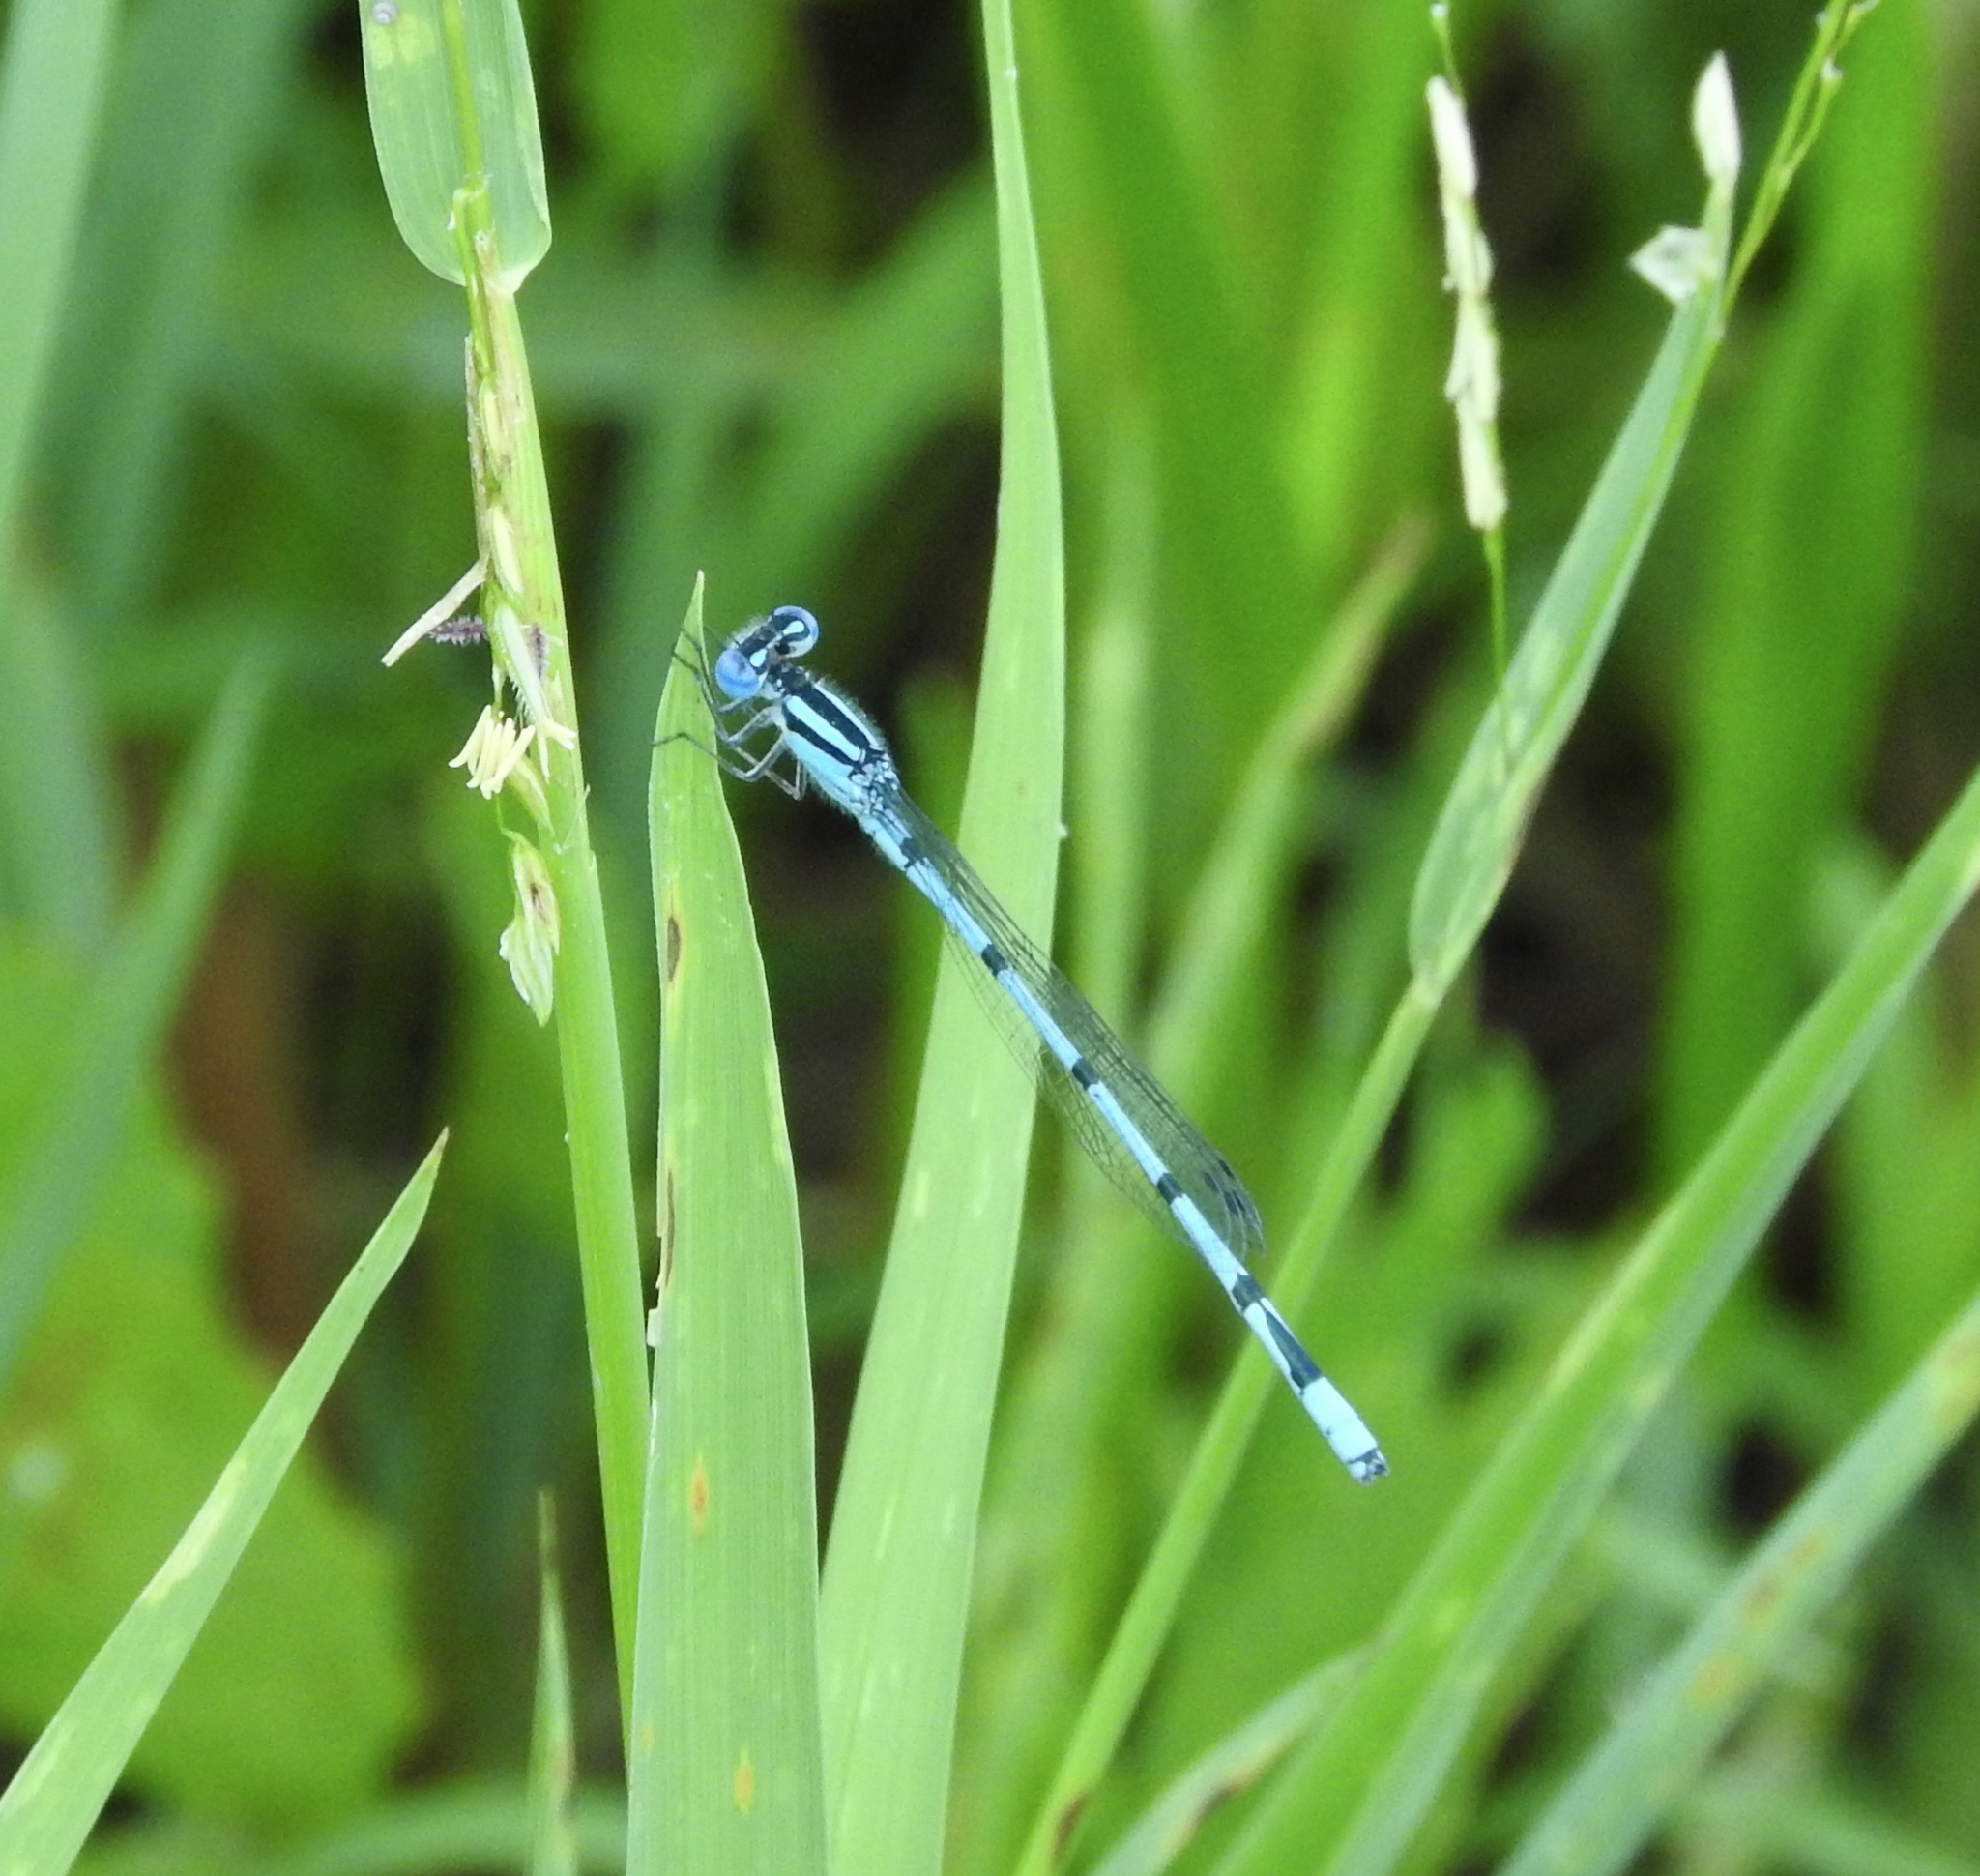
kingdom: Animalia
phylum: Arthropoda
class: Insecta
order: Odonata
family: Coenagrionidae
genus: Enallagma
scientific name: Enallagma doubledayi
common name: Atlantic bluet
